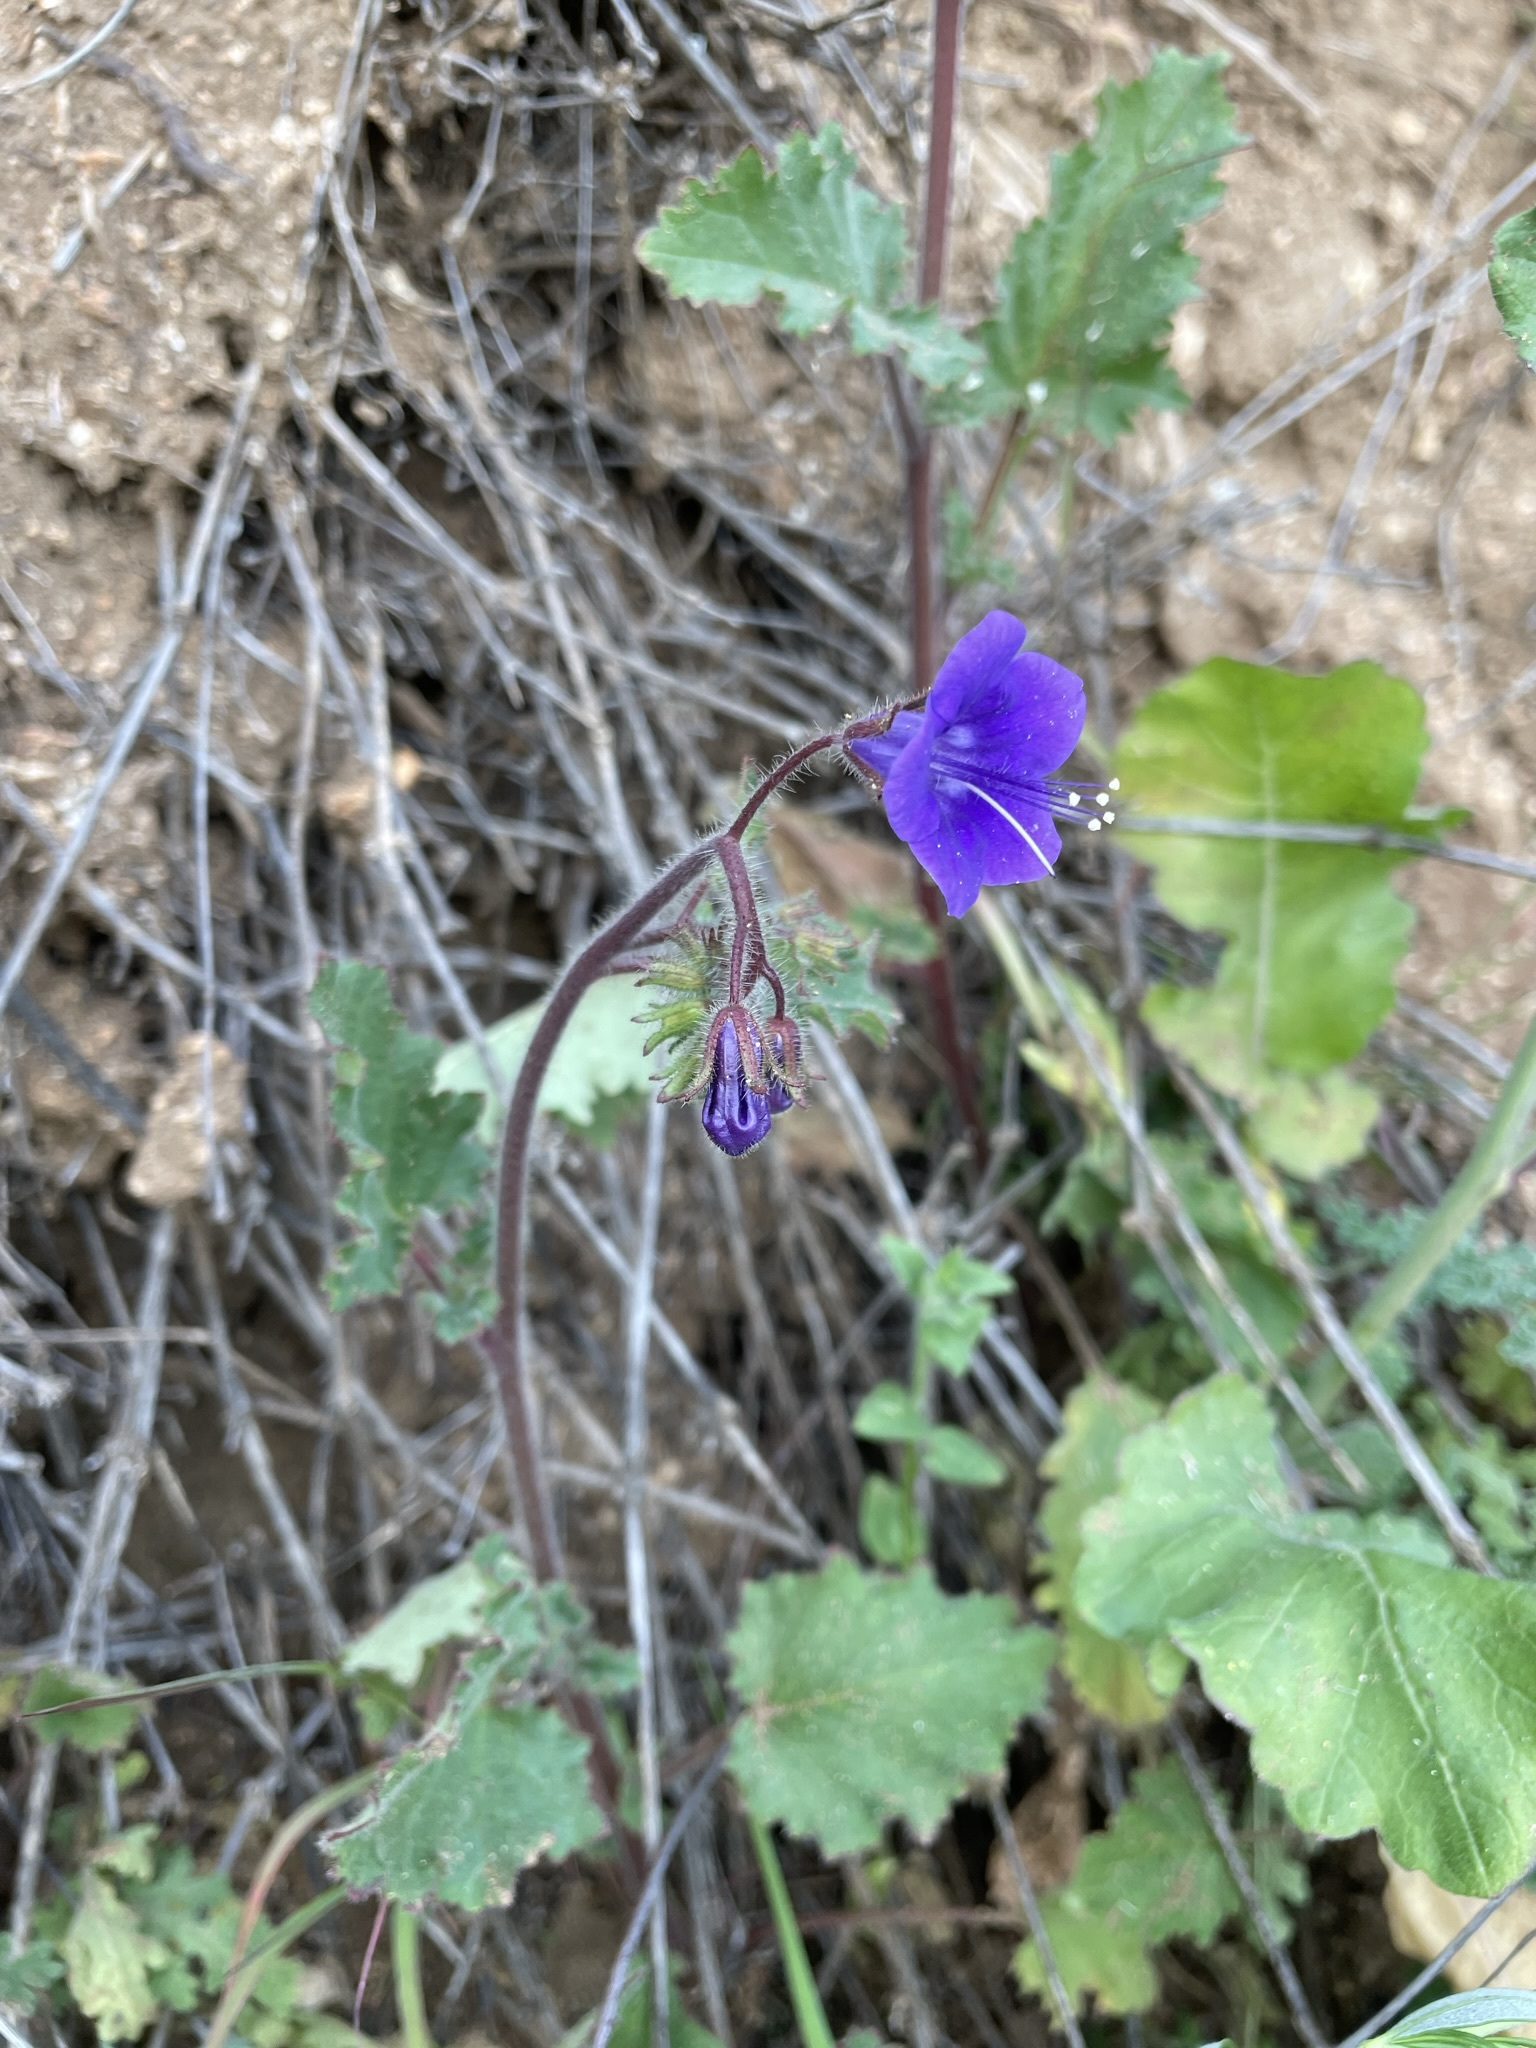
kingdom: Plantae
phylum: Tracheophyta
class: Magnoliopsida
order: Boraginales
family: Hydrophyllaceae
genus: Phacelia
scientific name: Phacelia minor
